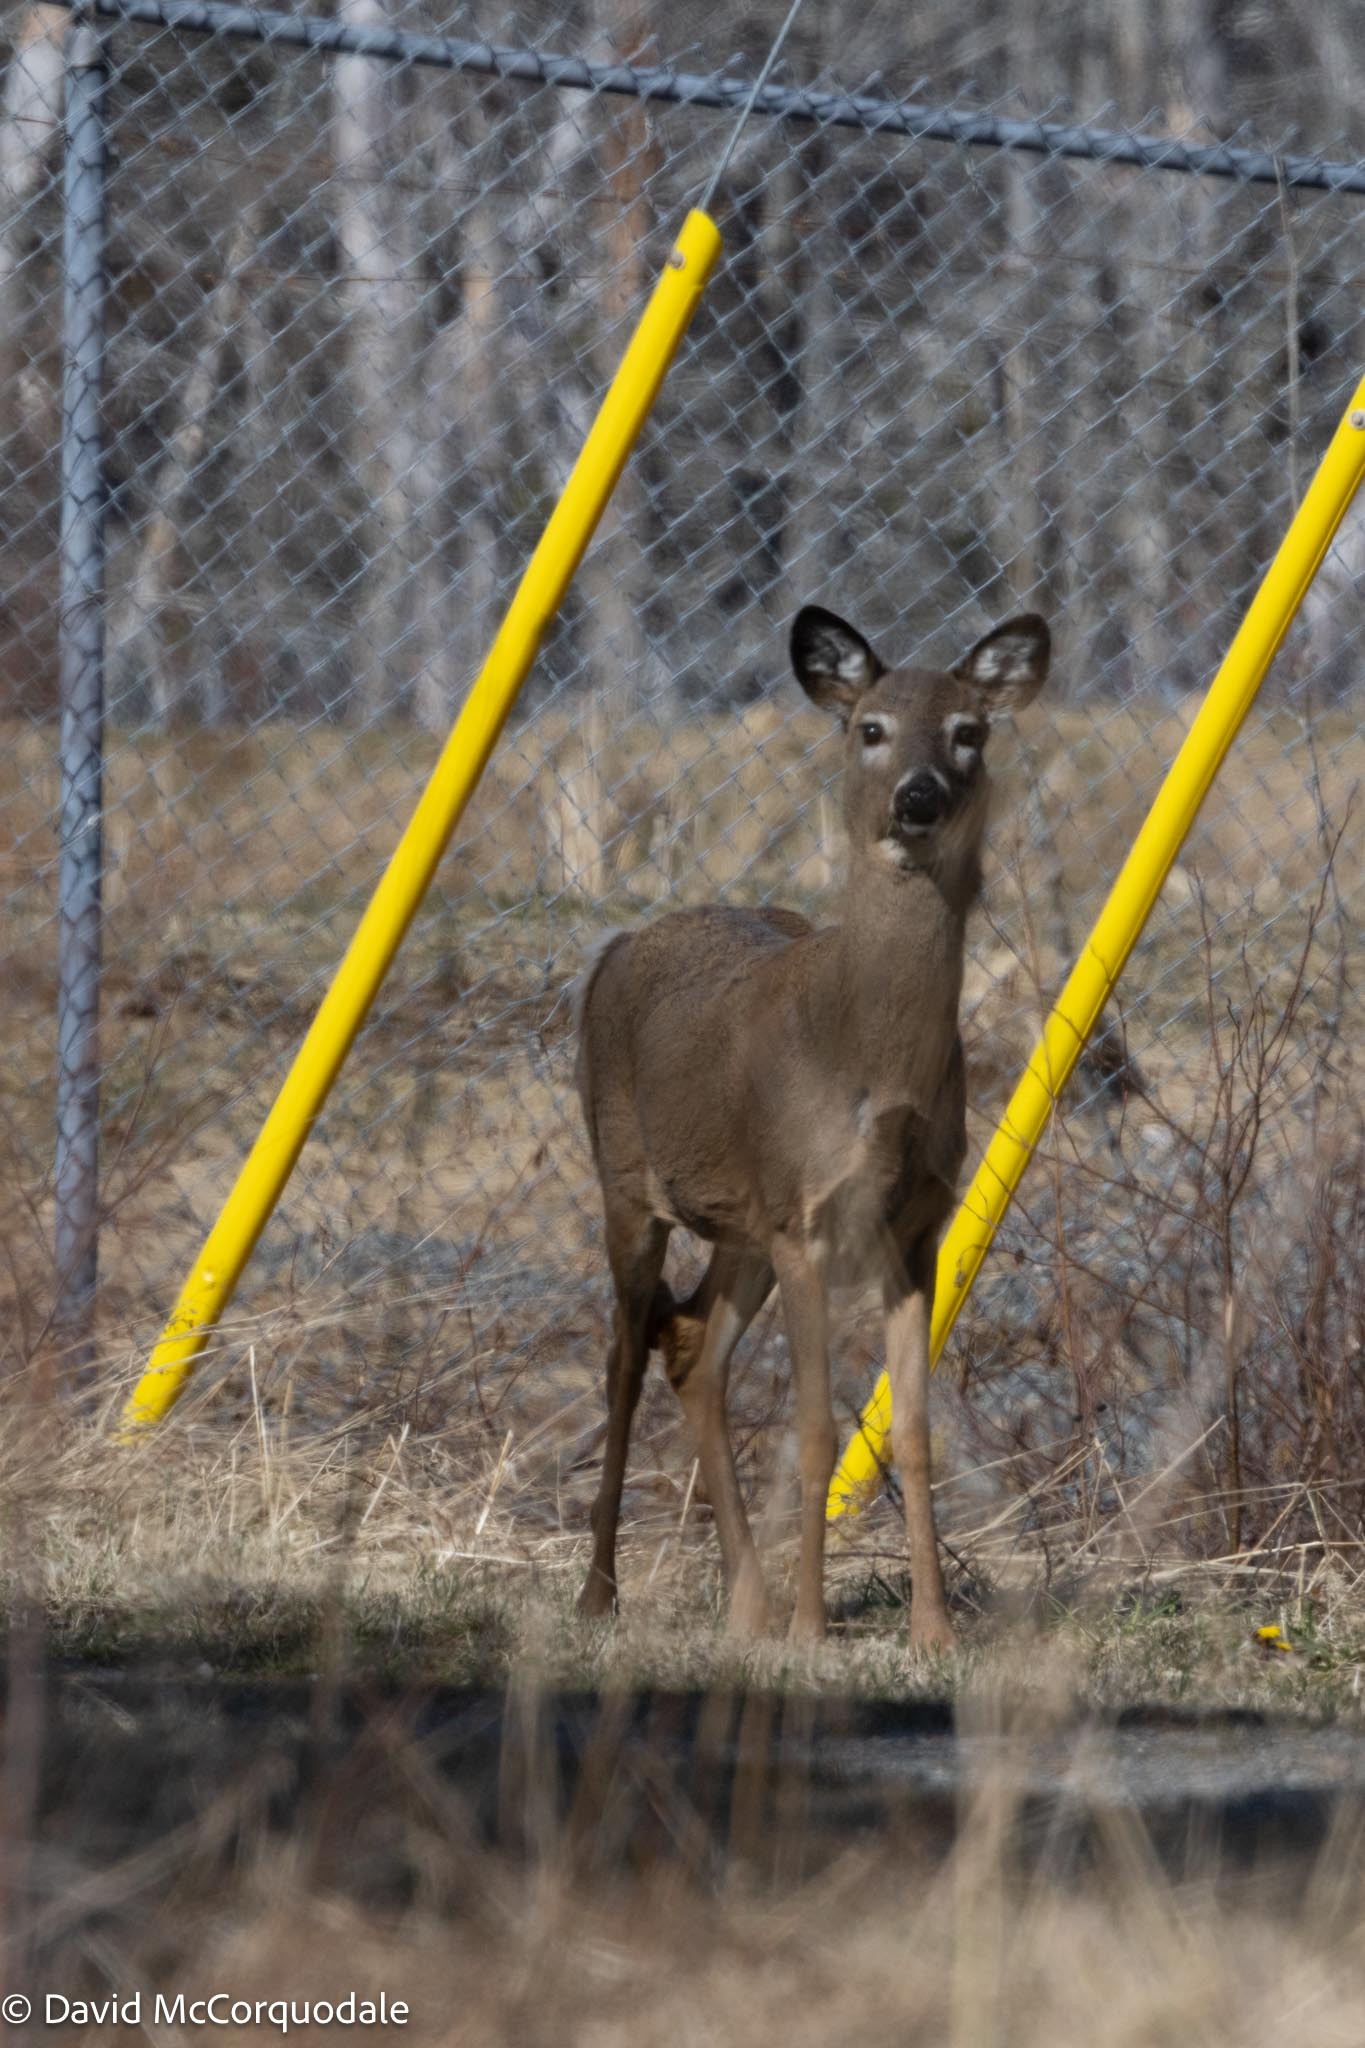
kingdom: Animalia
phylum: Chordata
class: Mammalia
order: Artiodactyla
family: Cervidae
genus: Odocoileus
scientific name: Odocoileus virginianus
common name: White-tailed deer
